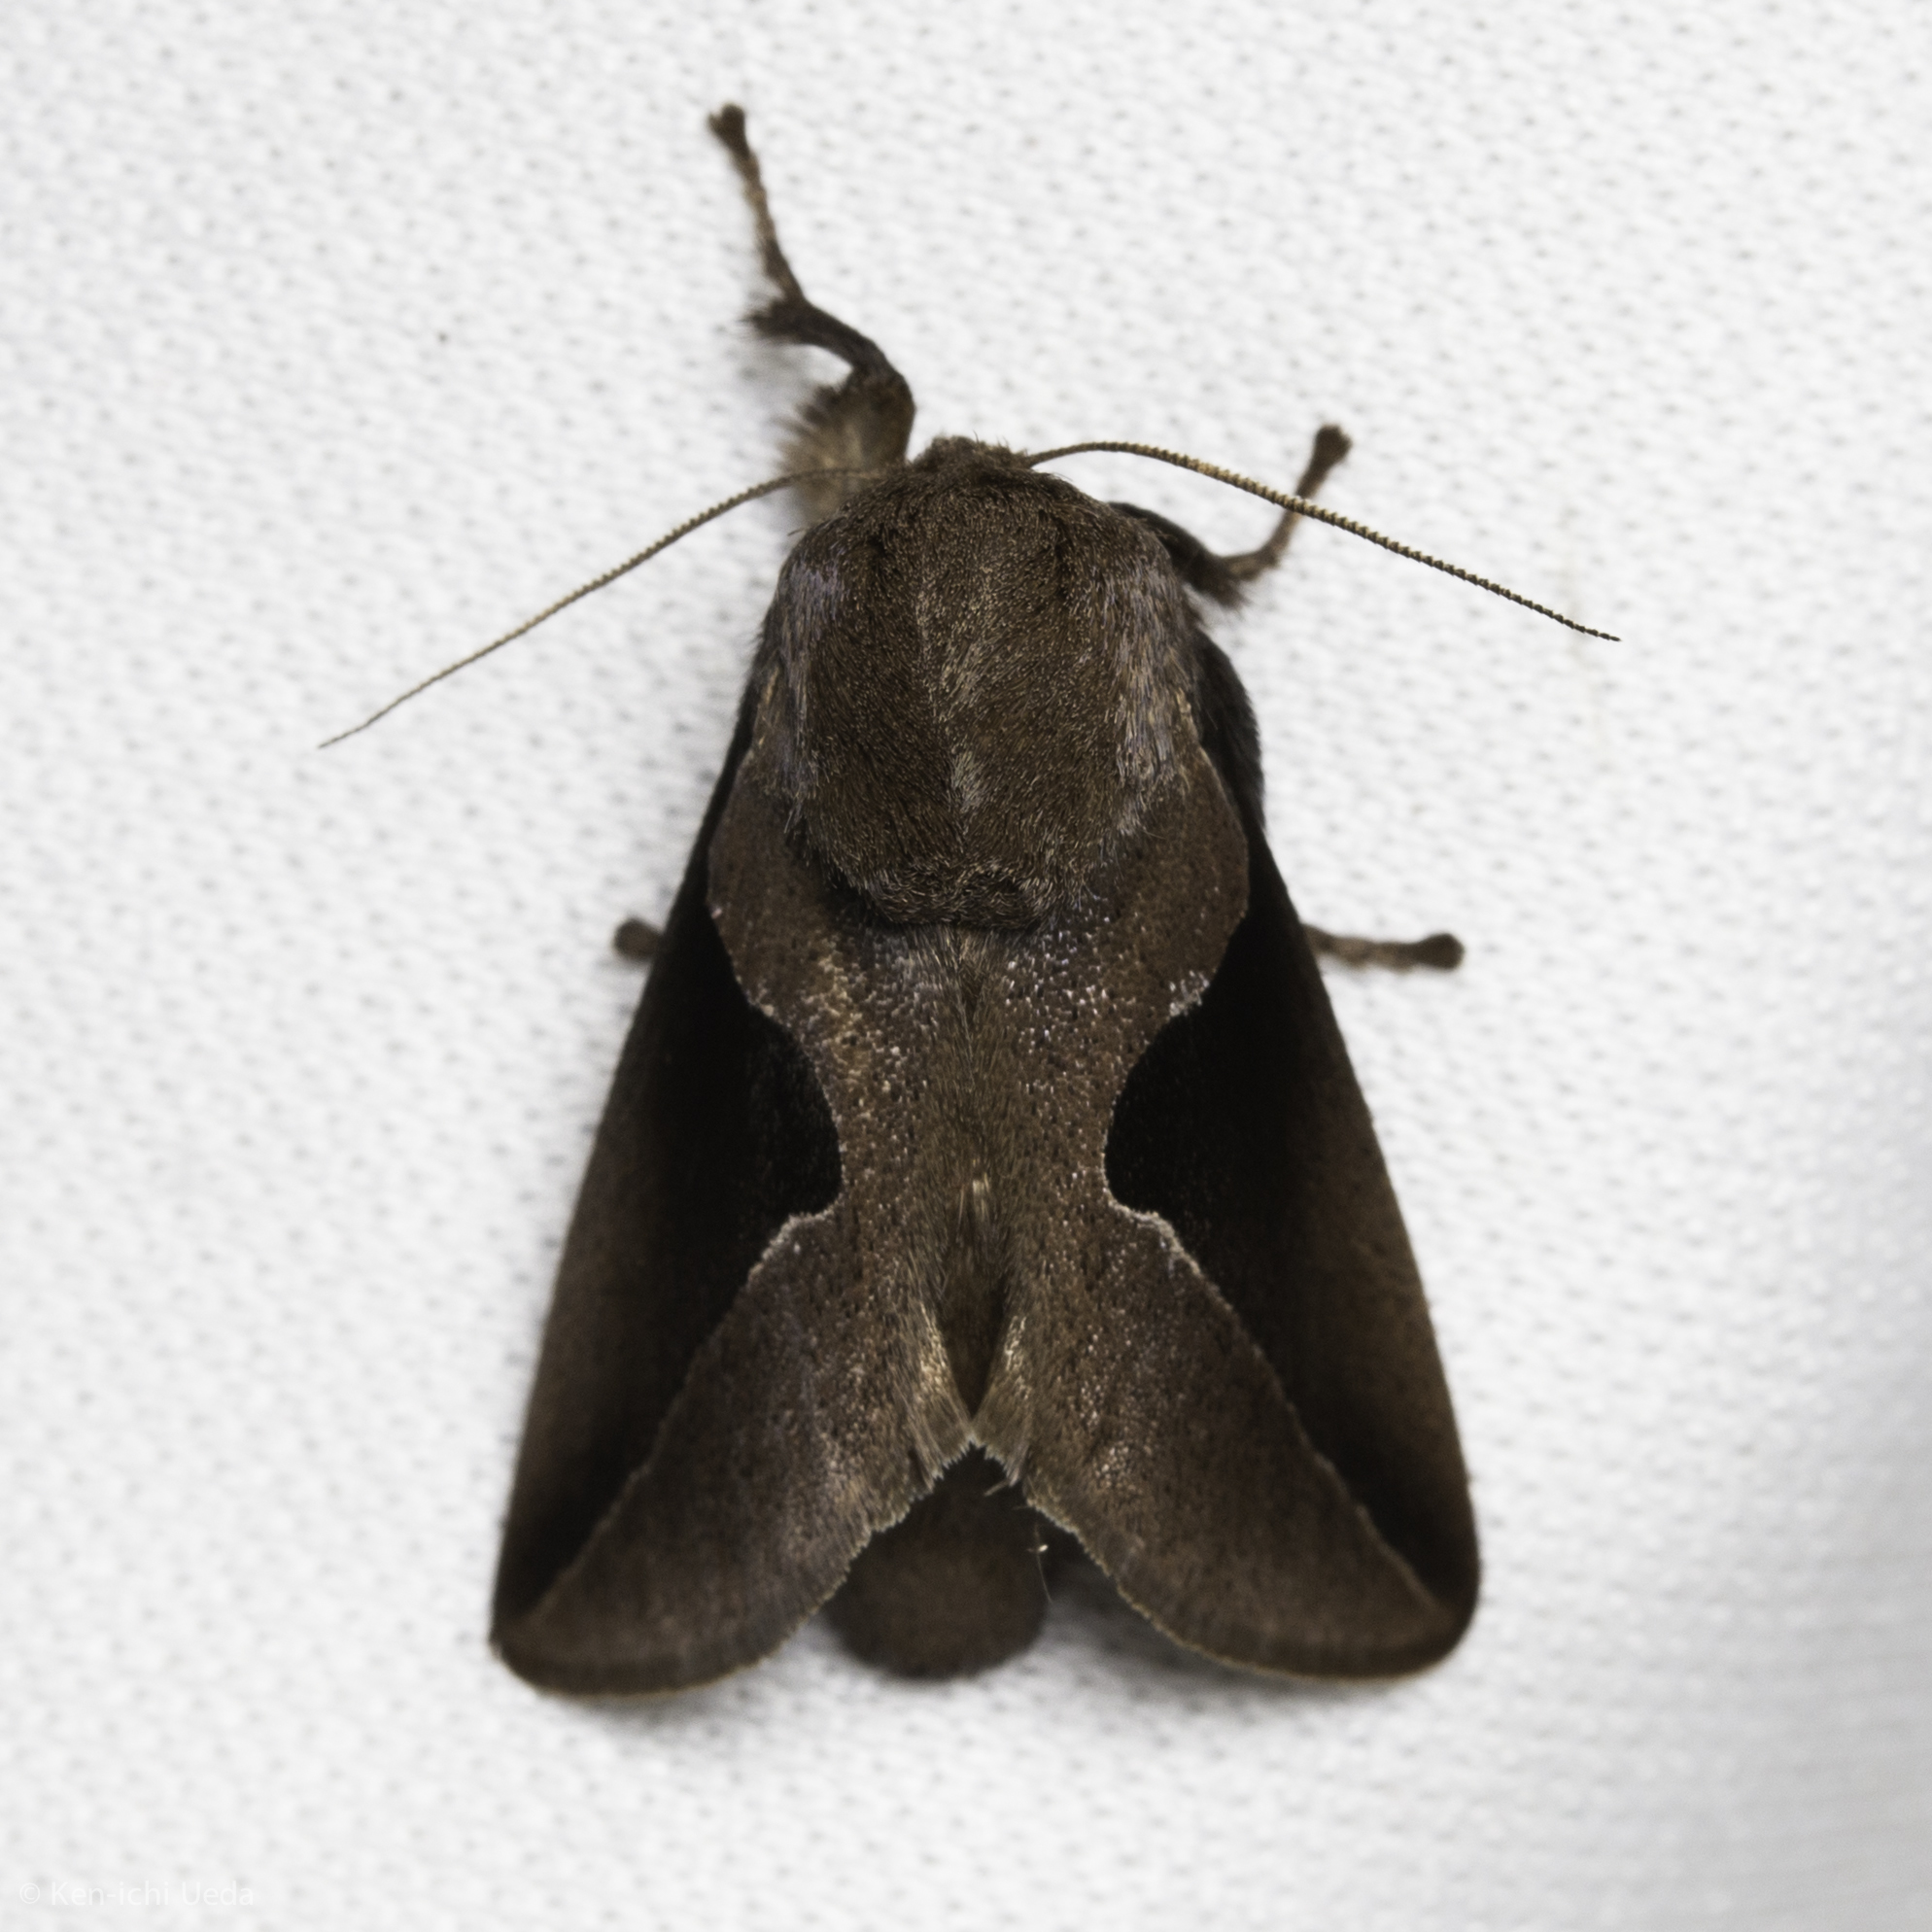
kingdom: Animalia
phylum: Arthropoda
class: Insecta
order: Lepidoptera
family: Limacodidae
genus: Prolimacodes
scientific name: Prolimacodes triangulifera
